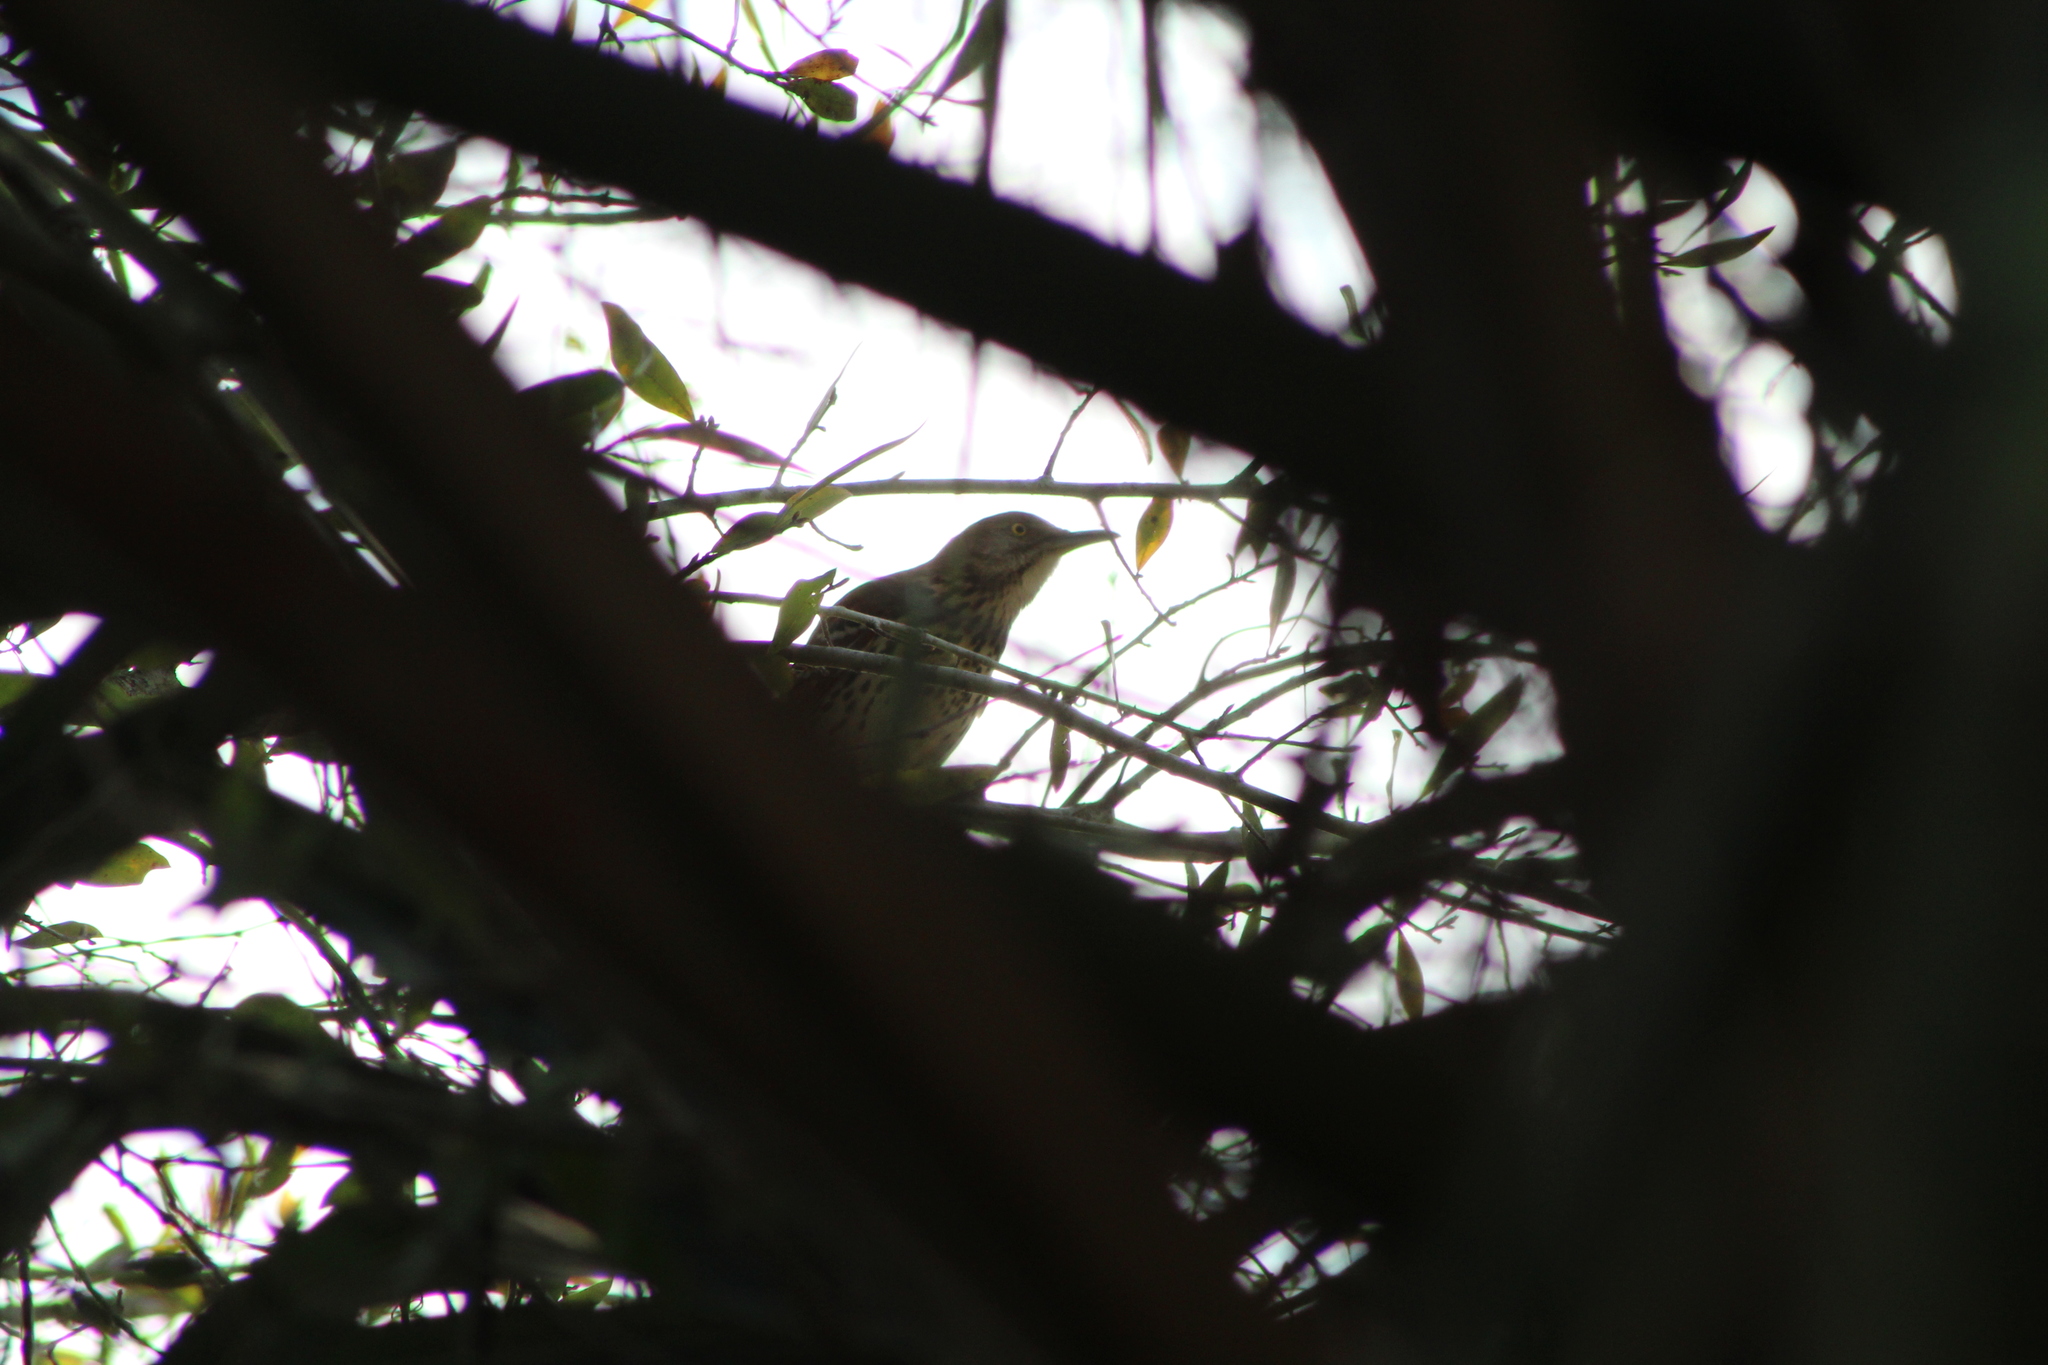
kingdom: Animalia
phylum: Chordata
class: Aves
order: Passeriformes
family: Mimidae
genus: Toxostoma
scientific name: Toxostoma rufum
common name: Brown thrasher
